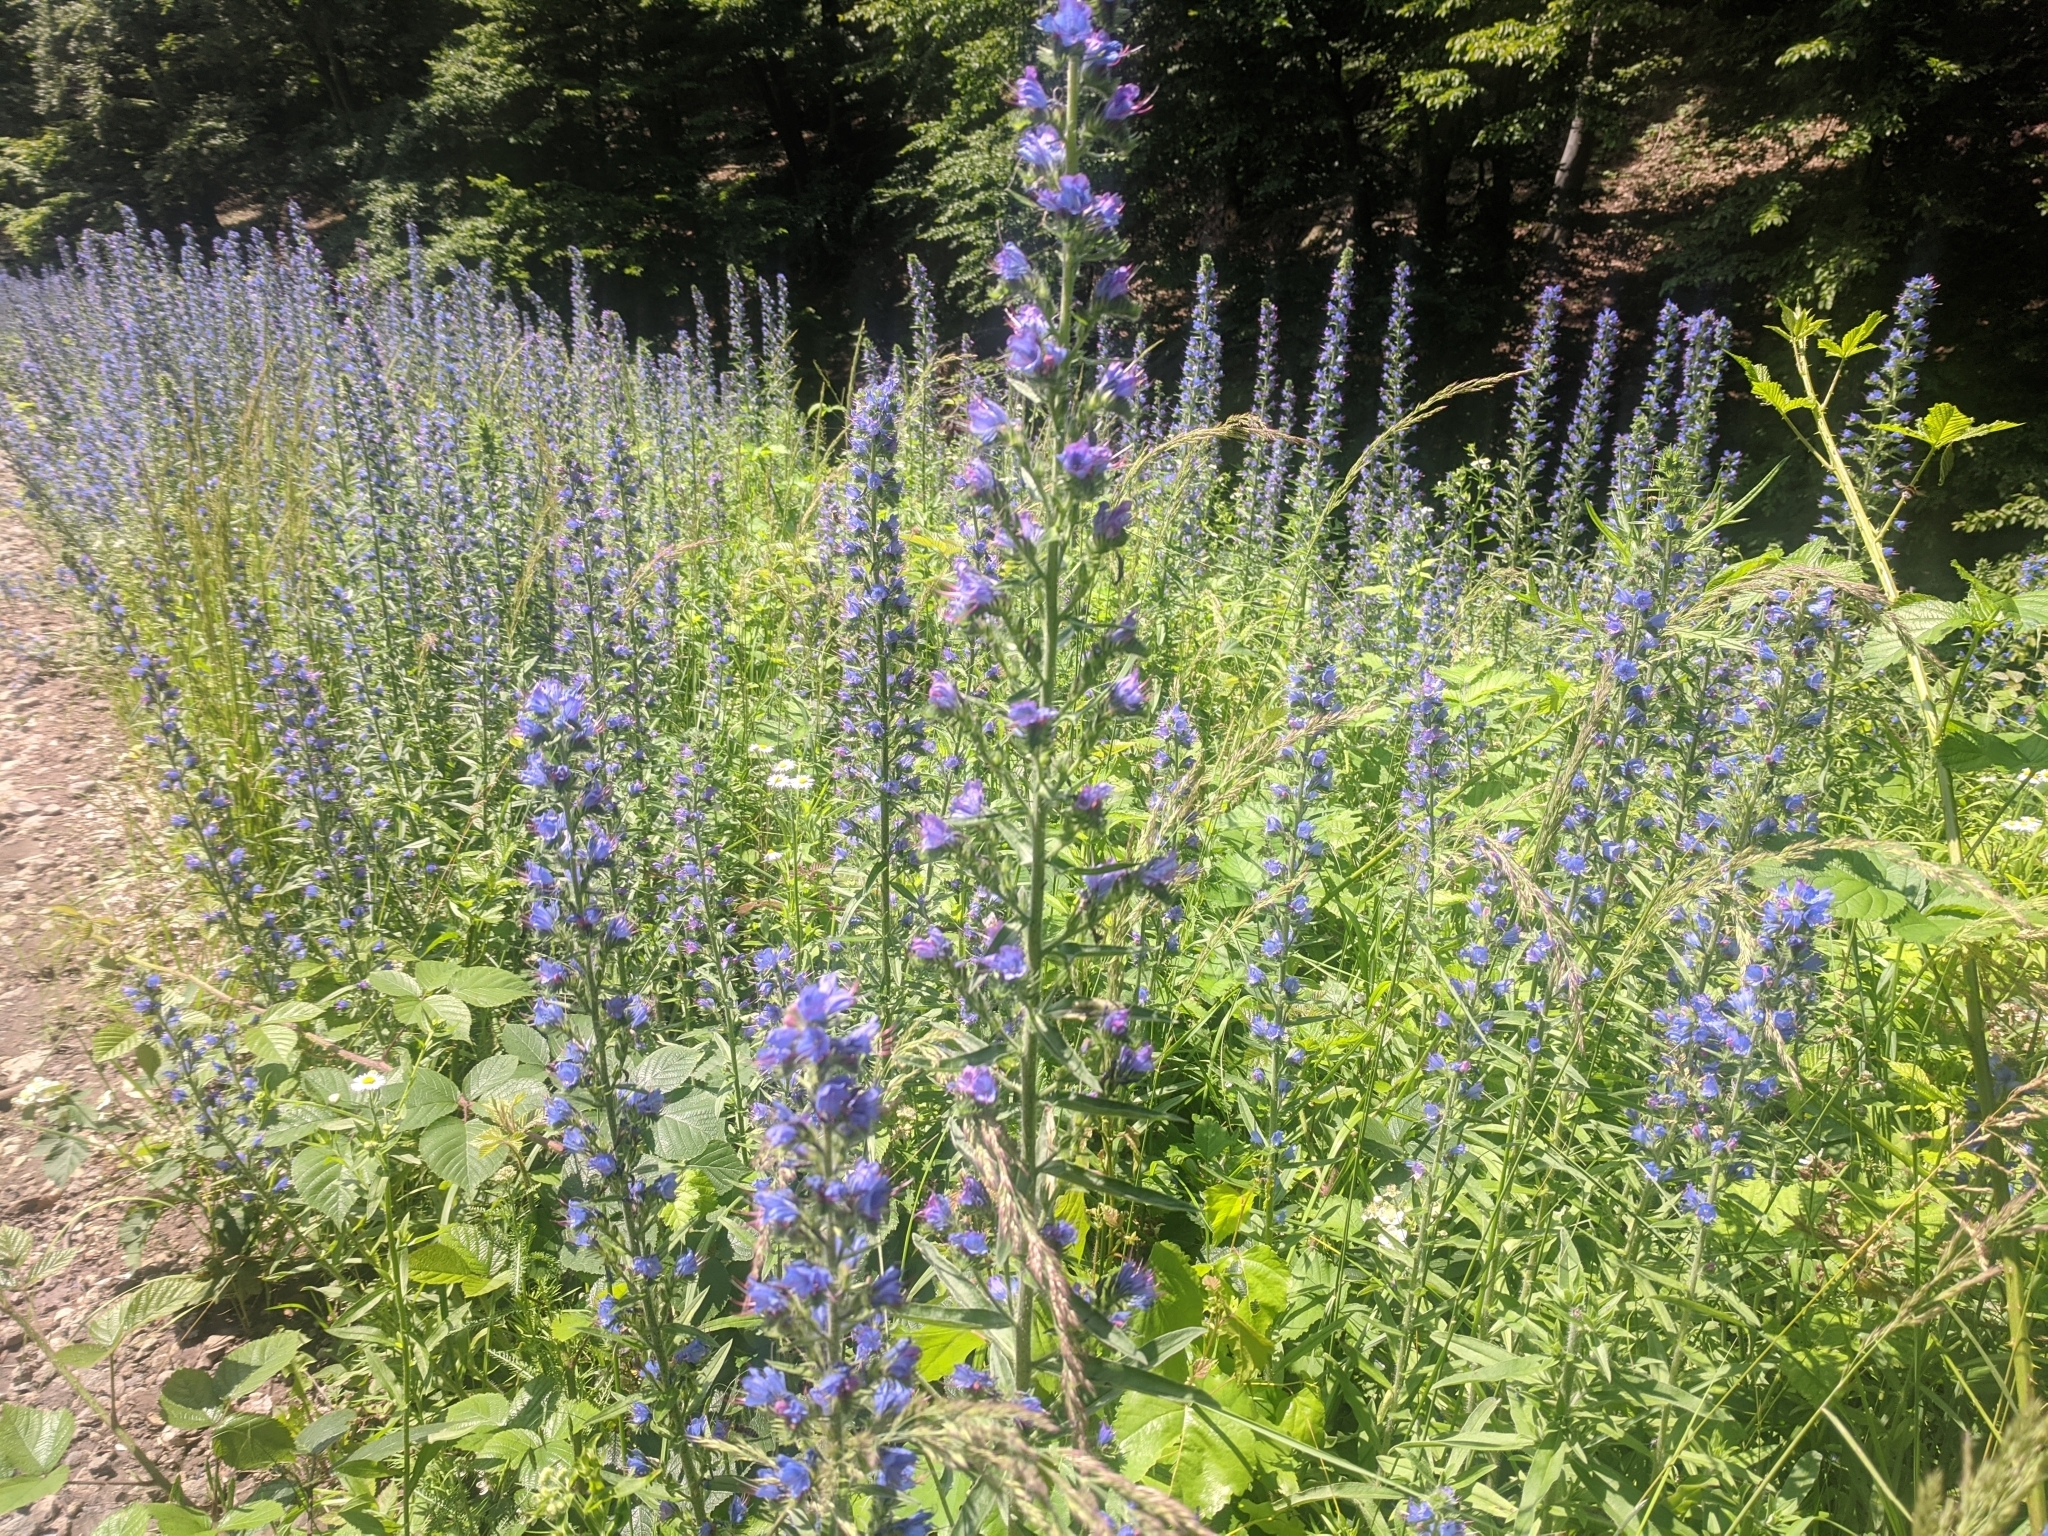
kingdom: Plantae
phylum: Tracheophyta
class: Magnoliopsida
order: Boraginales
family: Boraginaceae
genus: Echium
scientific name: Echium vulgare
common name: Common viper's bugloss
